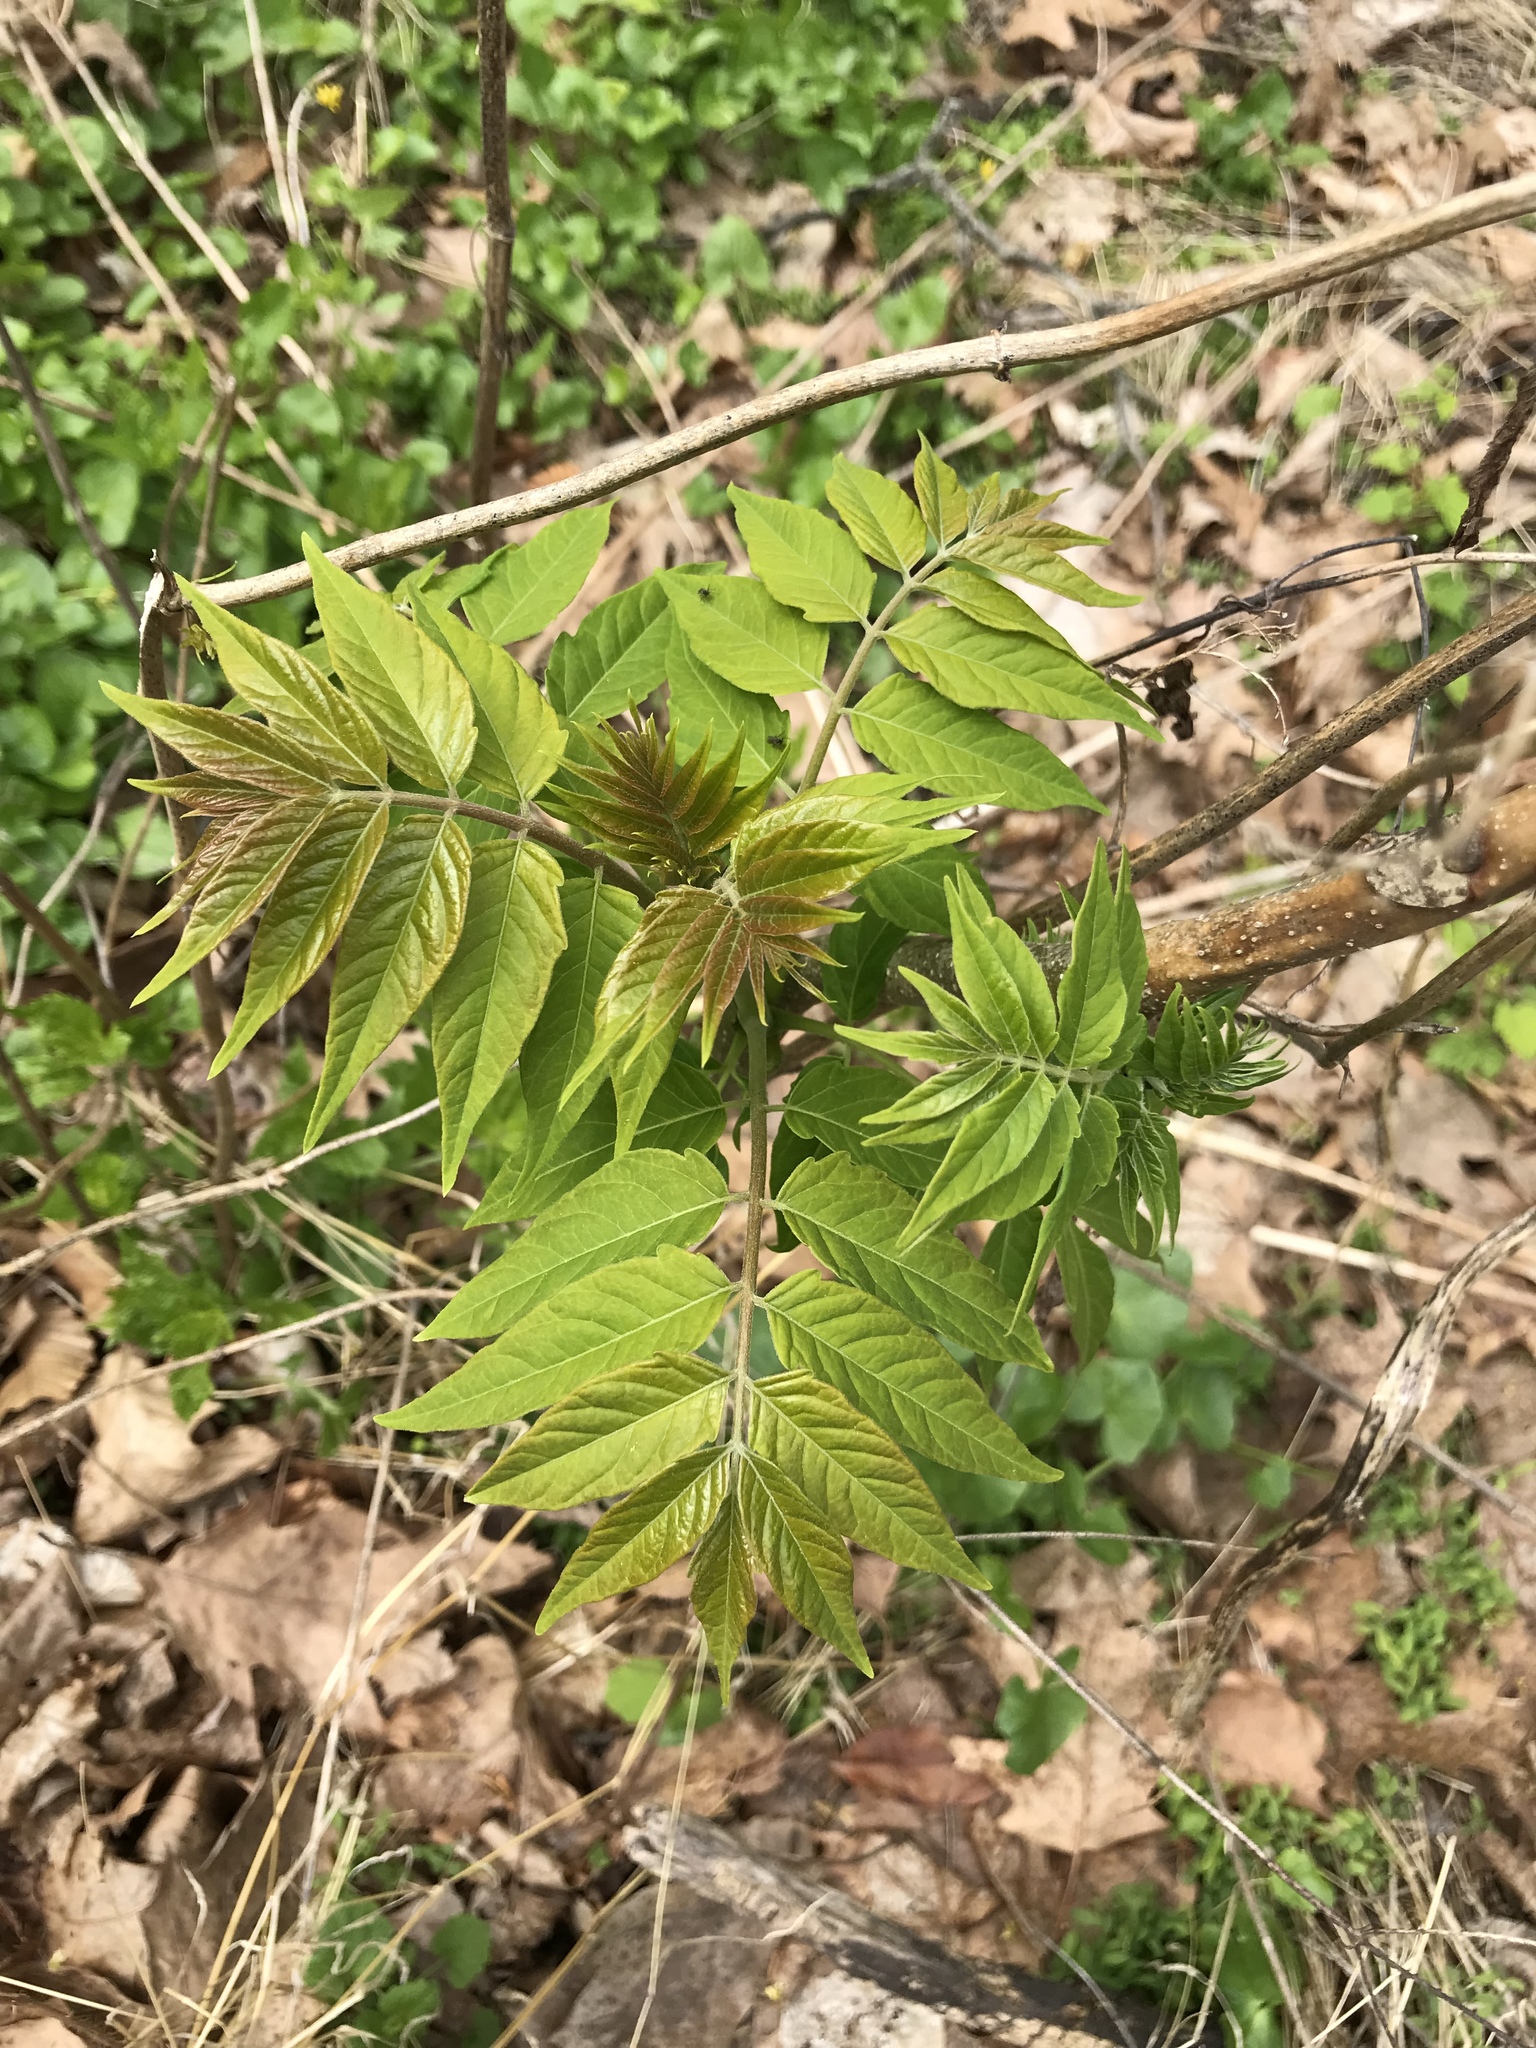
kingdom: Plantae
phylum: Tracheophyta
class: Magnoliopsida
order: Sapindales
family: Simaroubaceae
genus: Ailanthus
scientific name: Ailanthus altissima
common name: Tree-of-heaven
